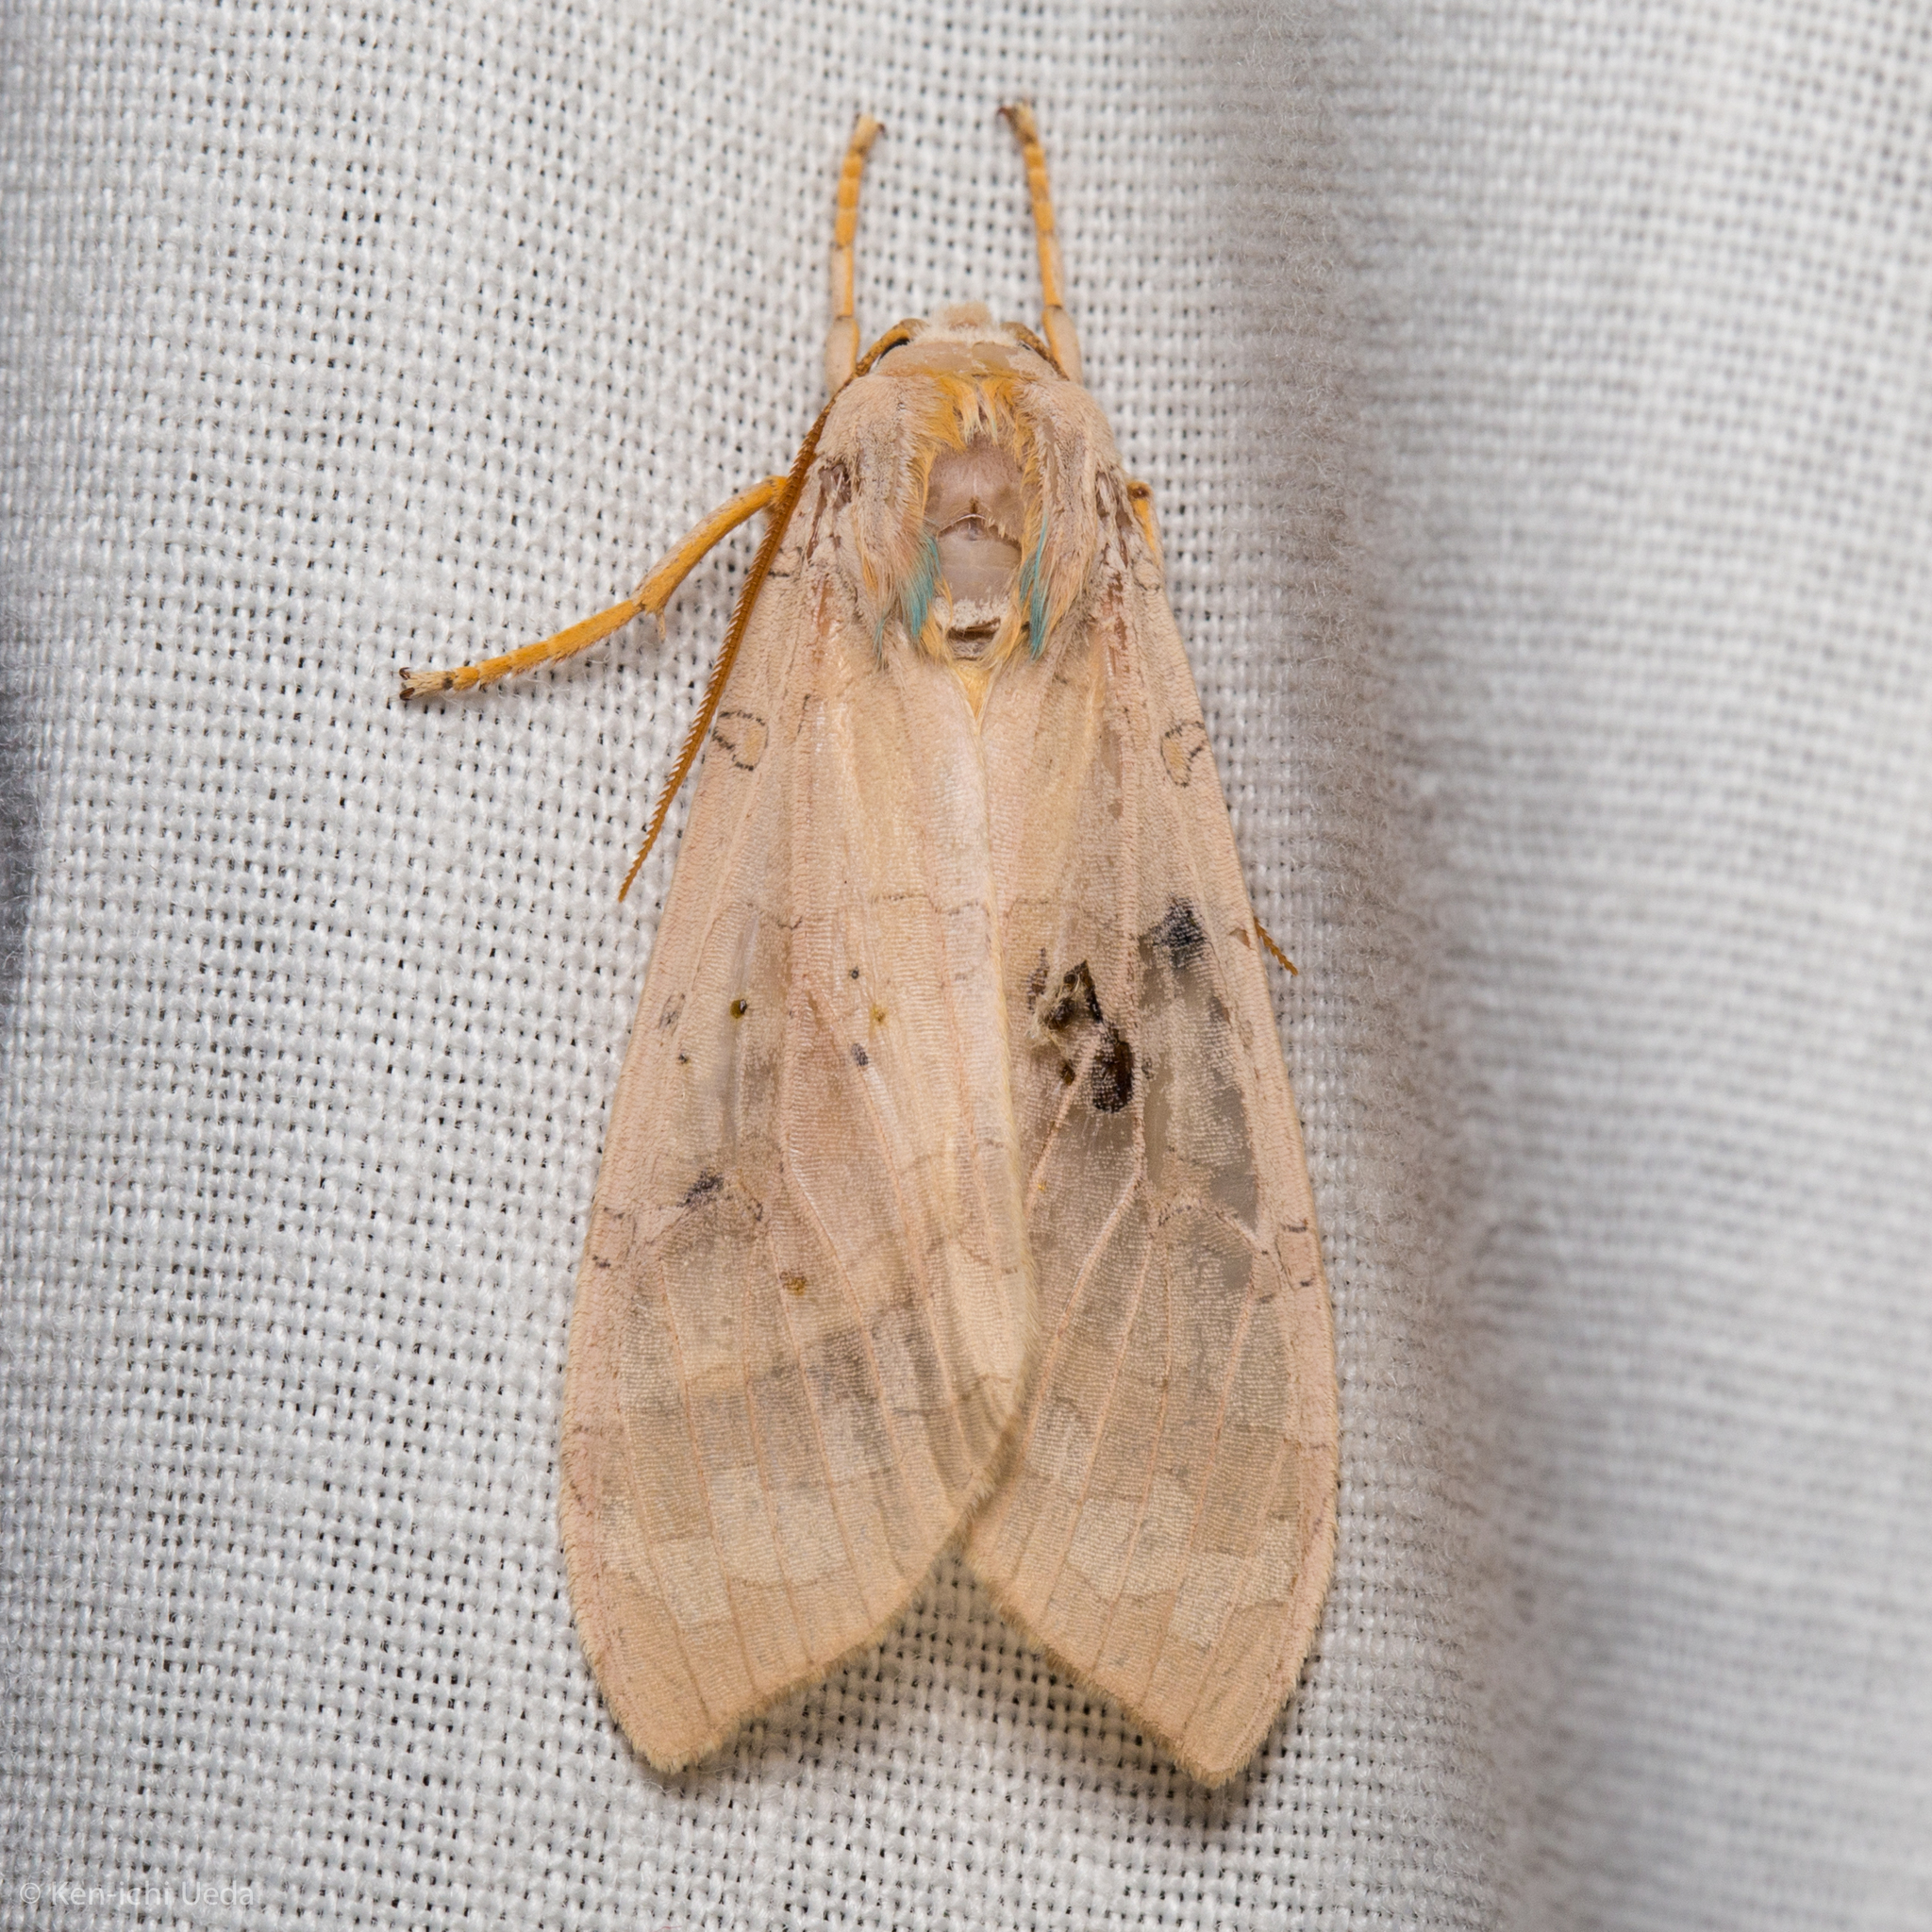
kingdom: Animalia
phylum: Arthropoda
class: Insecta
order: Lepidoptera
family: Erebidae
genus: Halysidota
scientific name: Halysidota
